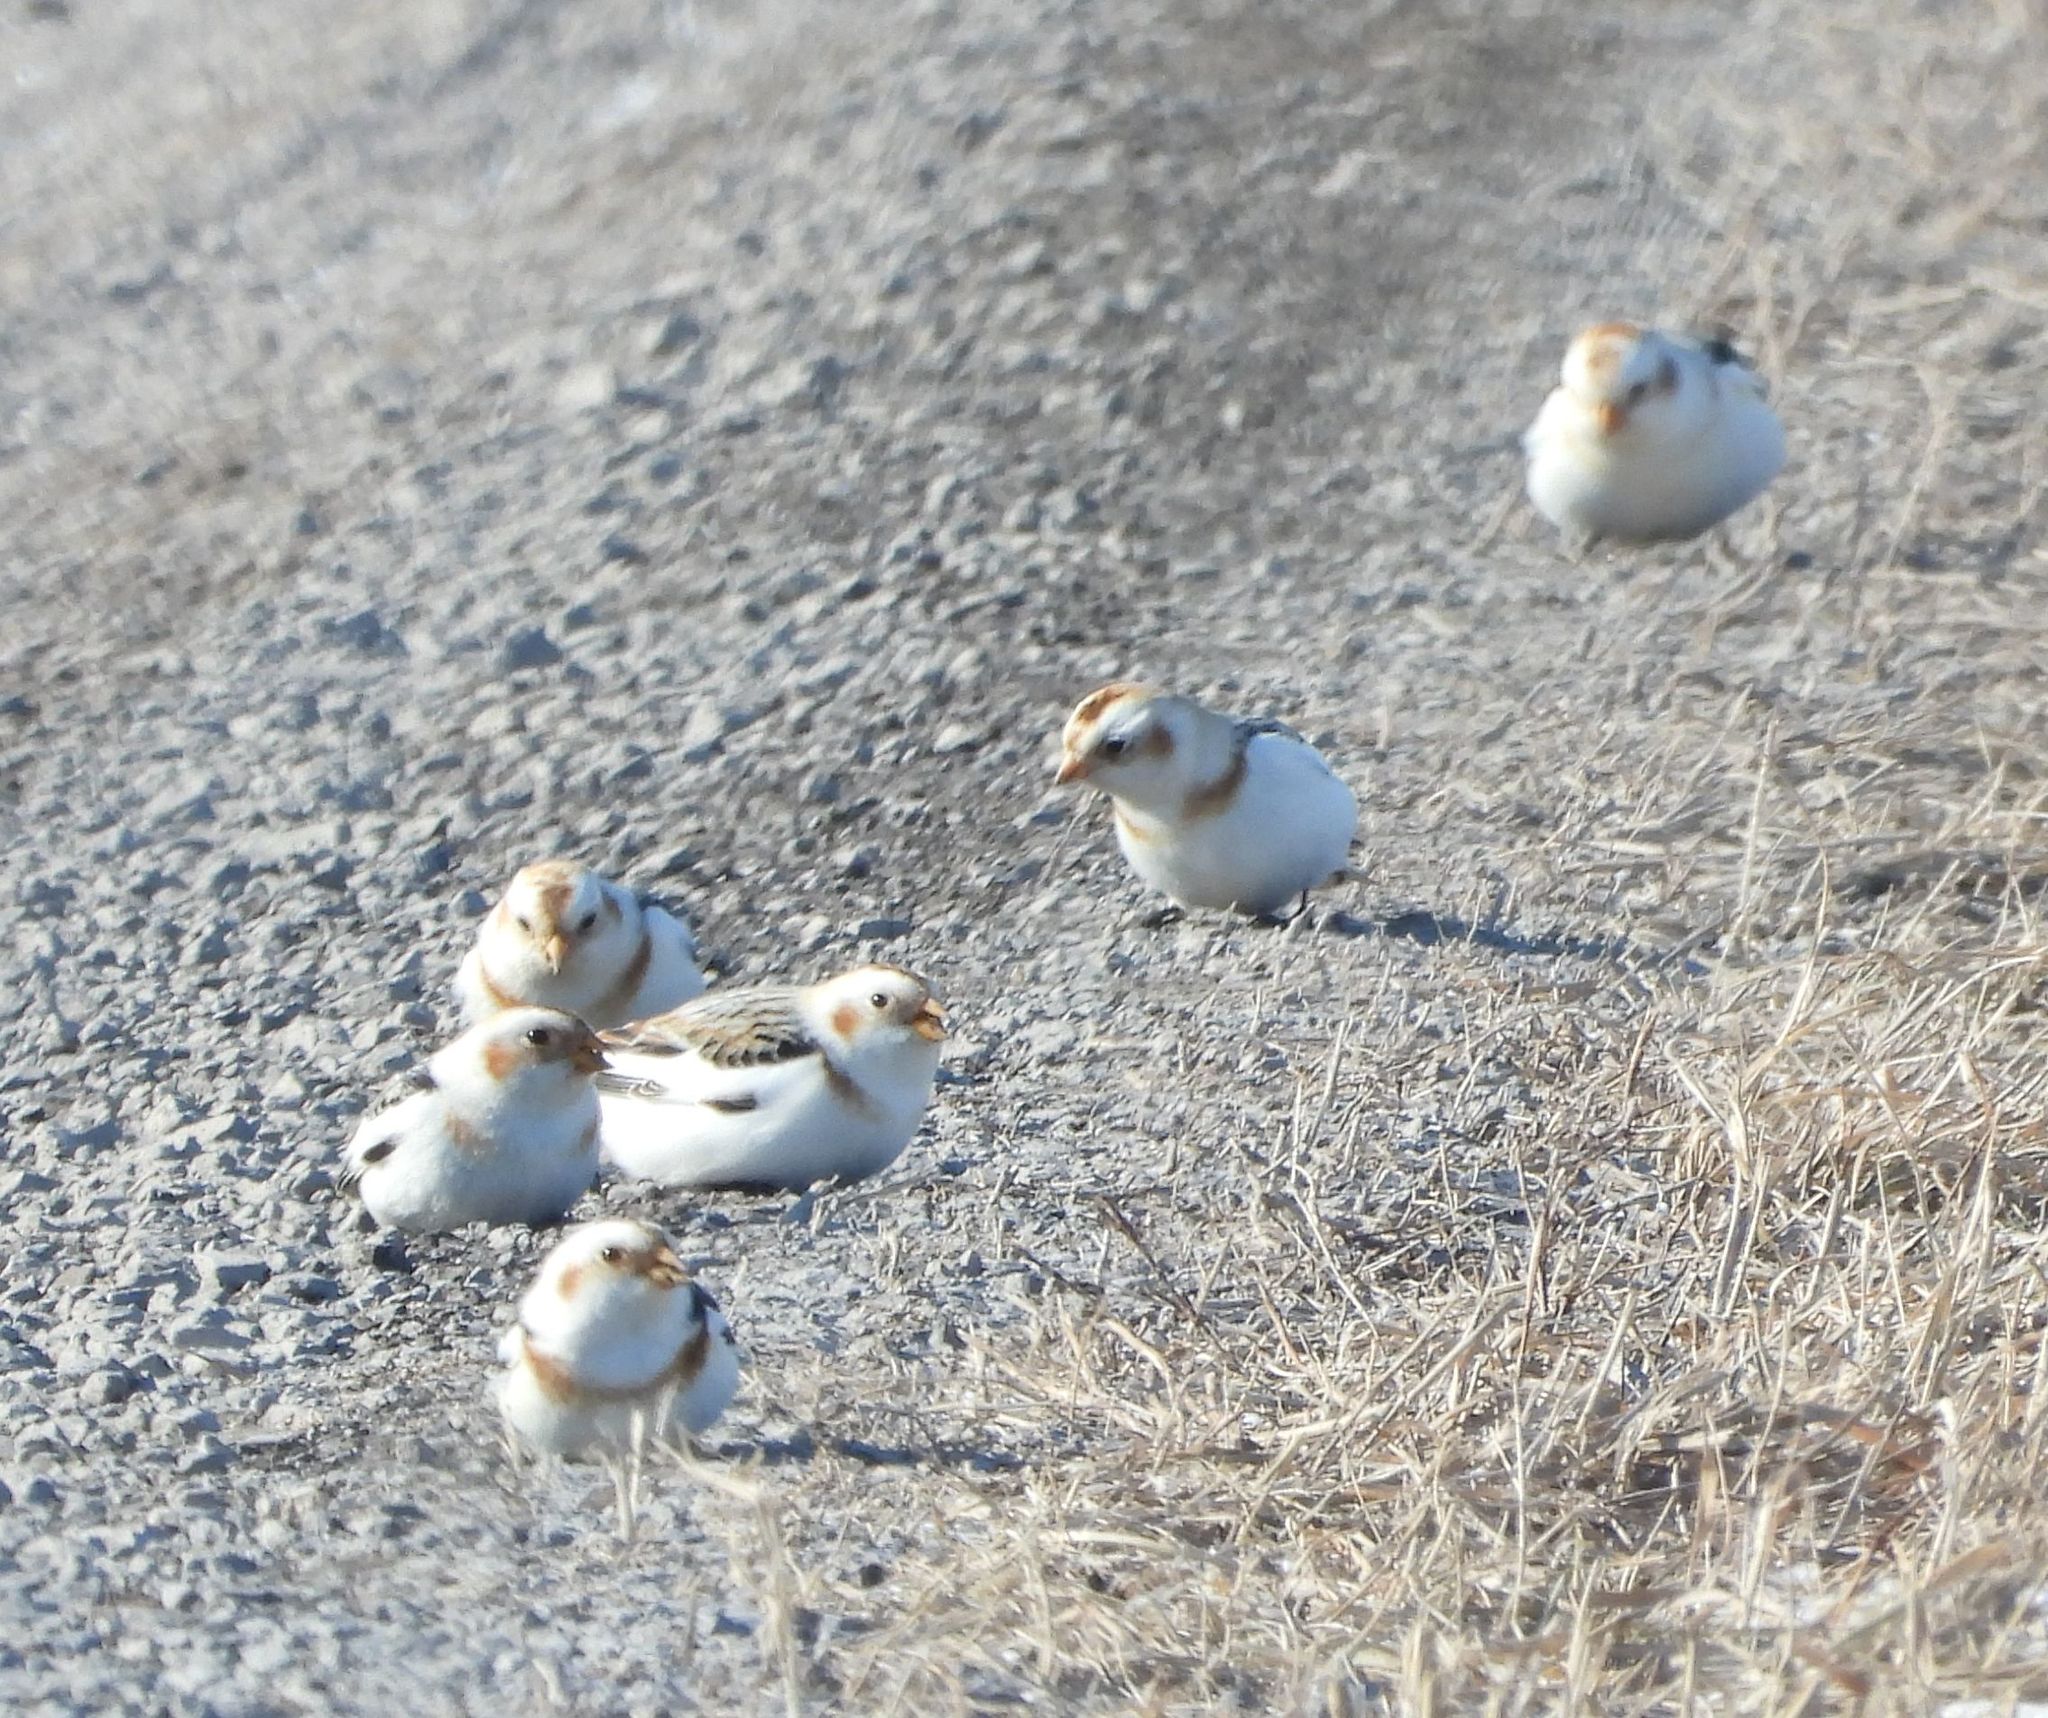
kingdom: Animalia
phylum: Chordata
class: Aves
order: Passeriformes
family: Calcariidae
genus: Plectrophenax
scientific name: Plectrophenax nivalis
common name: Snow bunting
